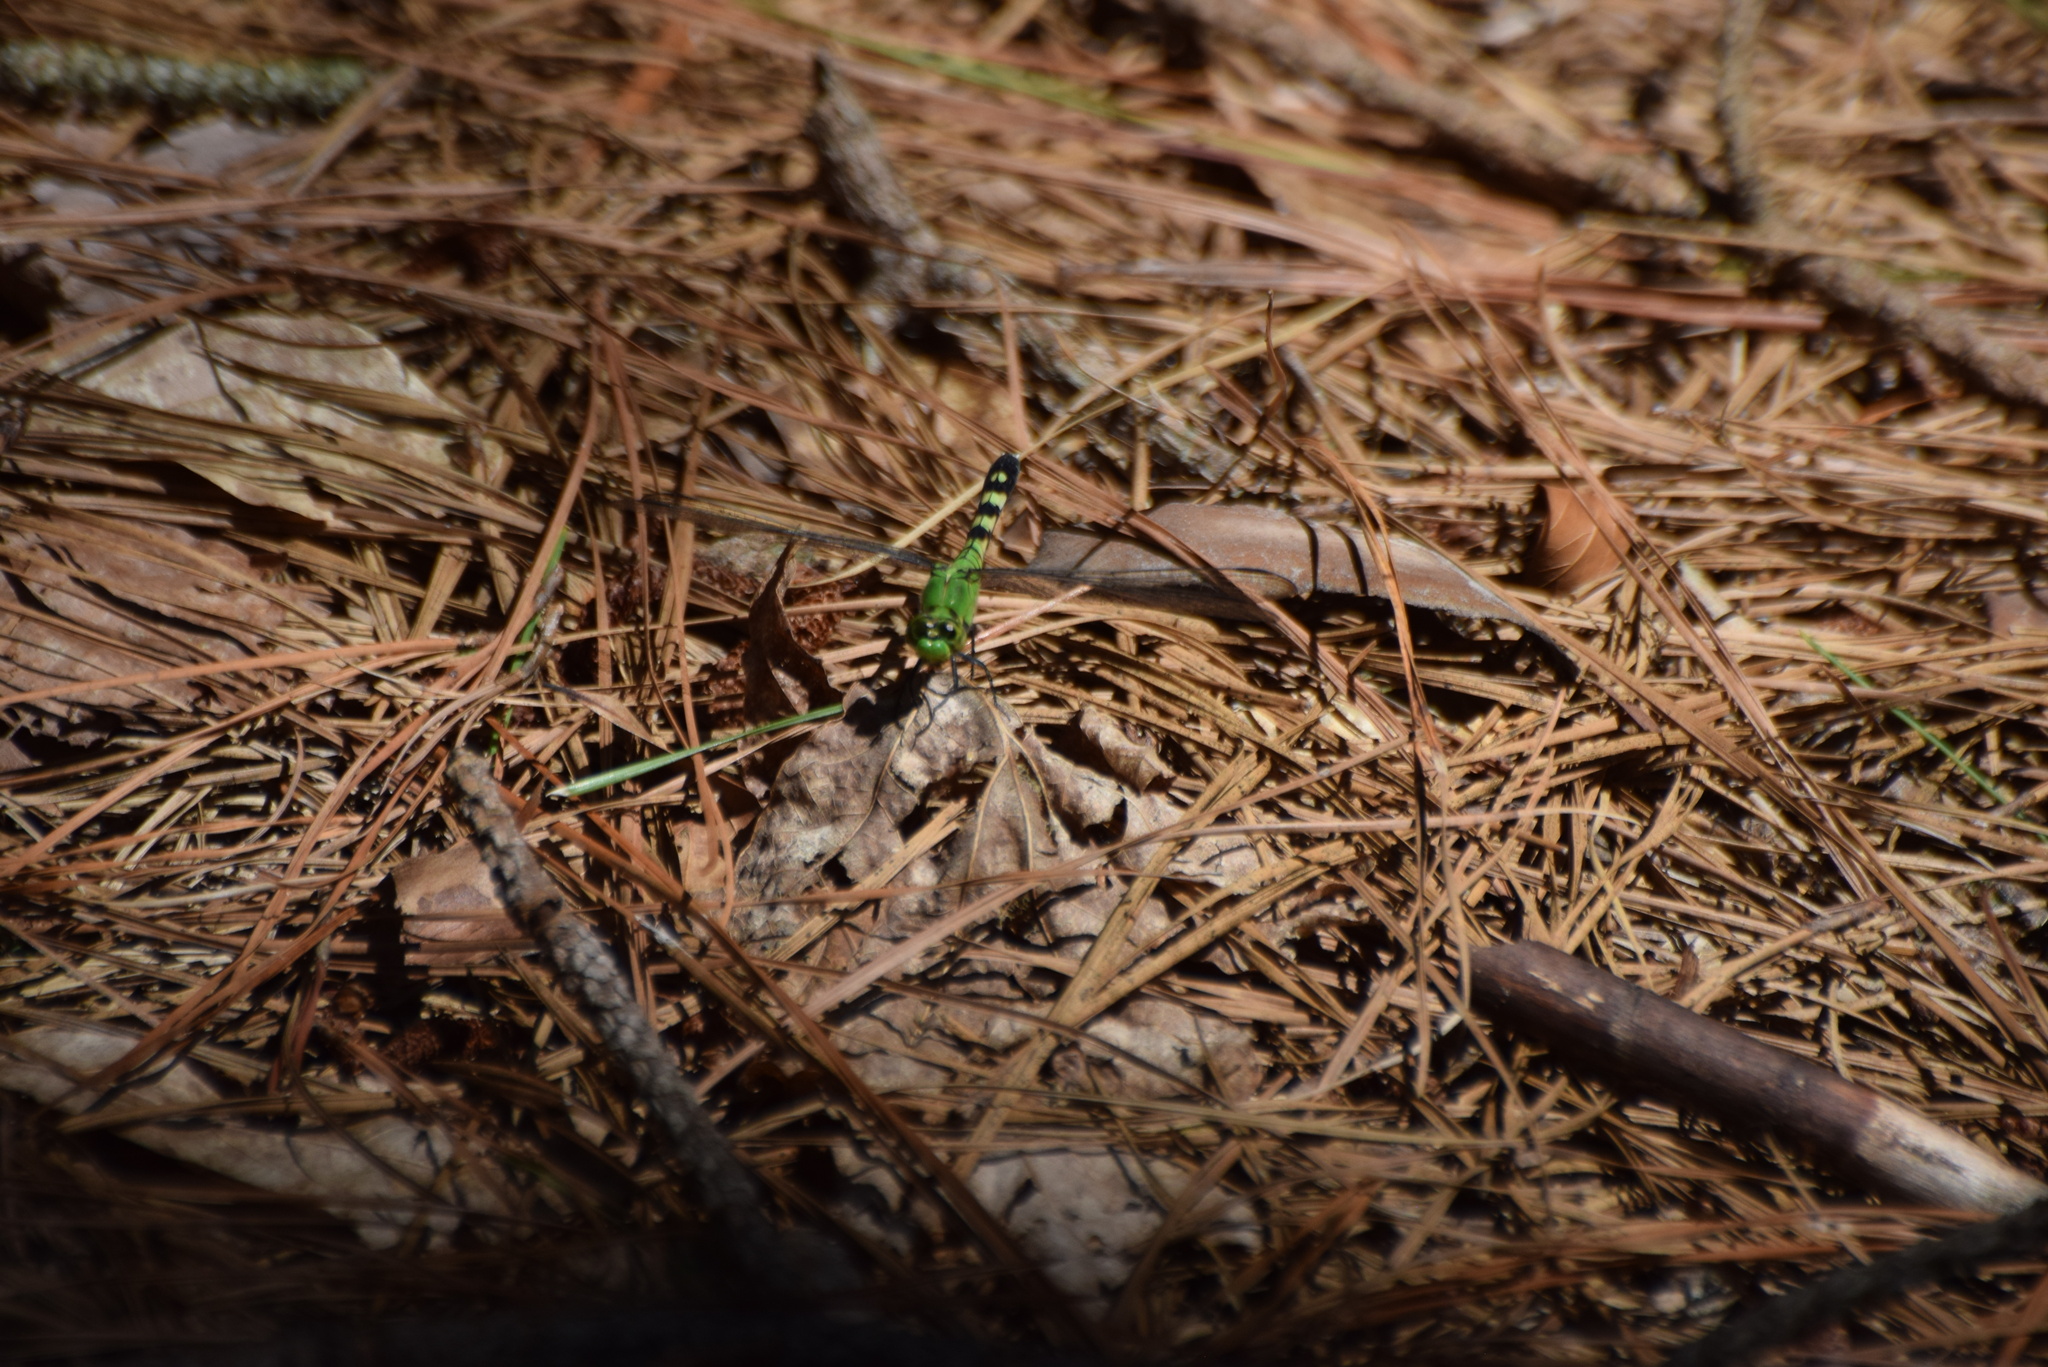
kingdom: Animalia
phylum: Arthropoda
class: Insecta
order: Odonata
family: Libellulidae
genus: Erythemis
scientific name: Erythemis simplicicollis
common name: Eastern pondhawk
